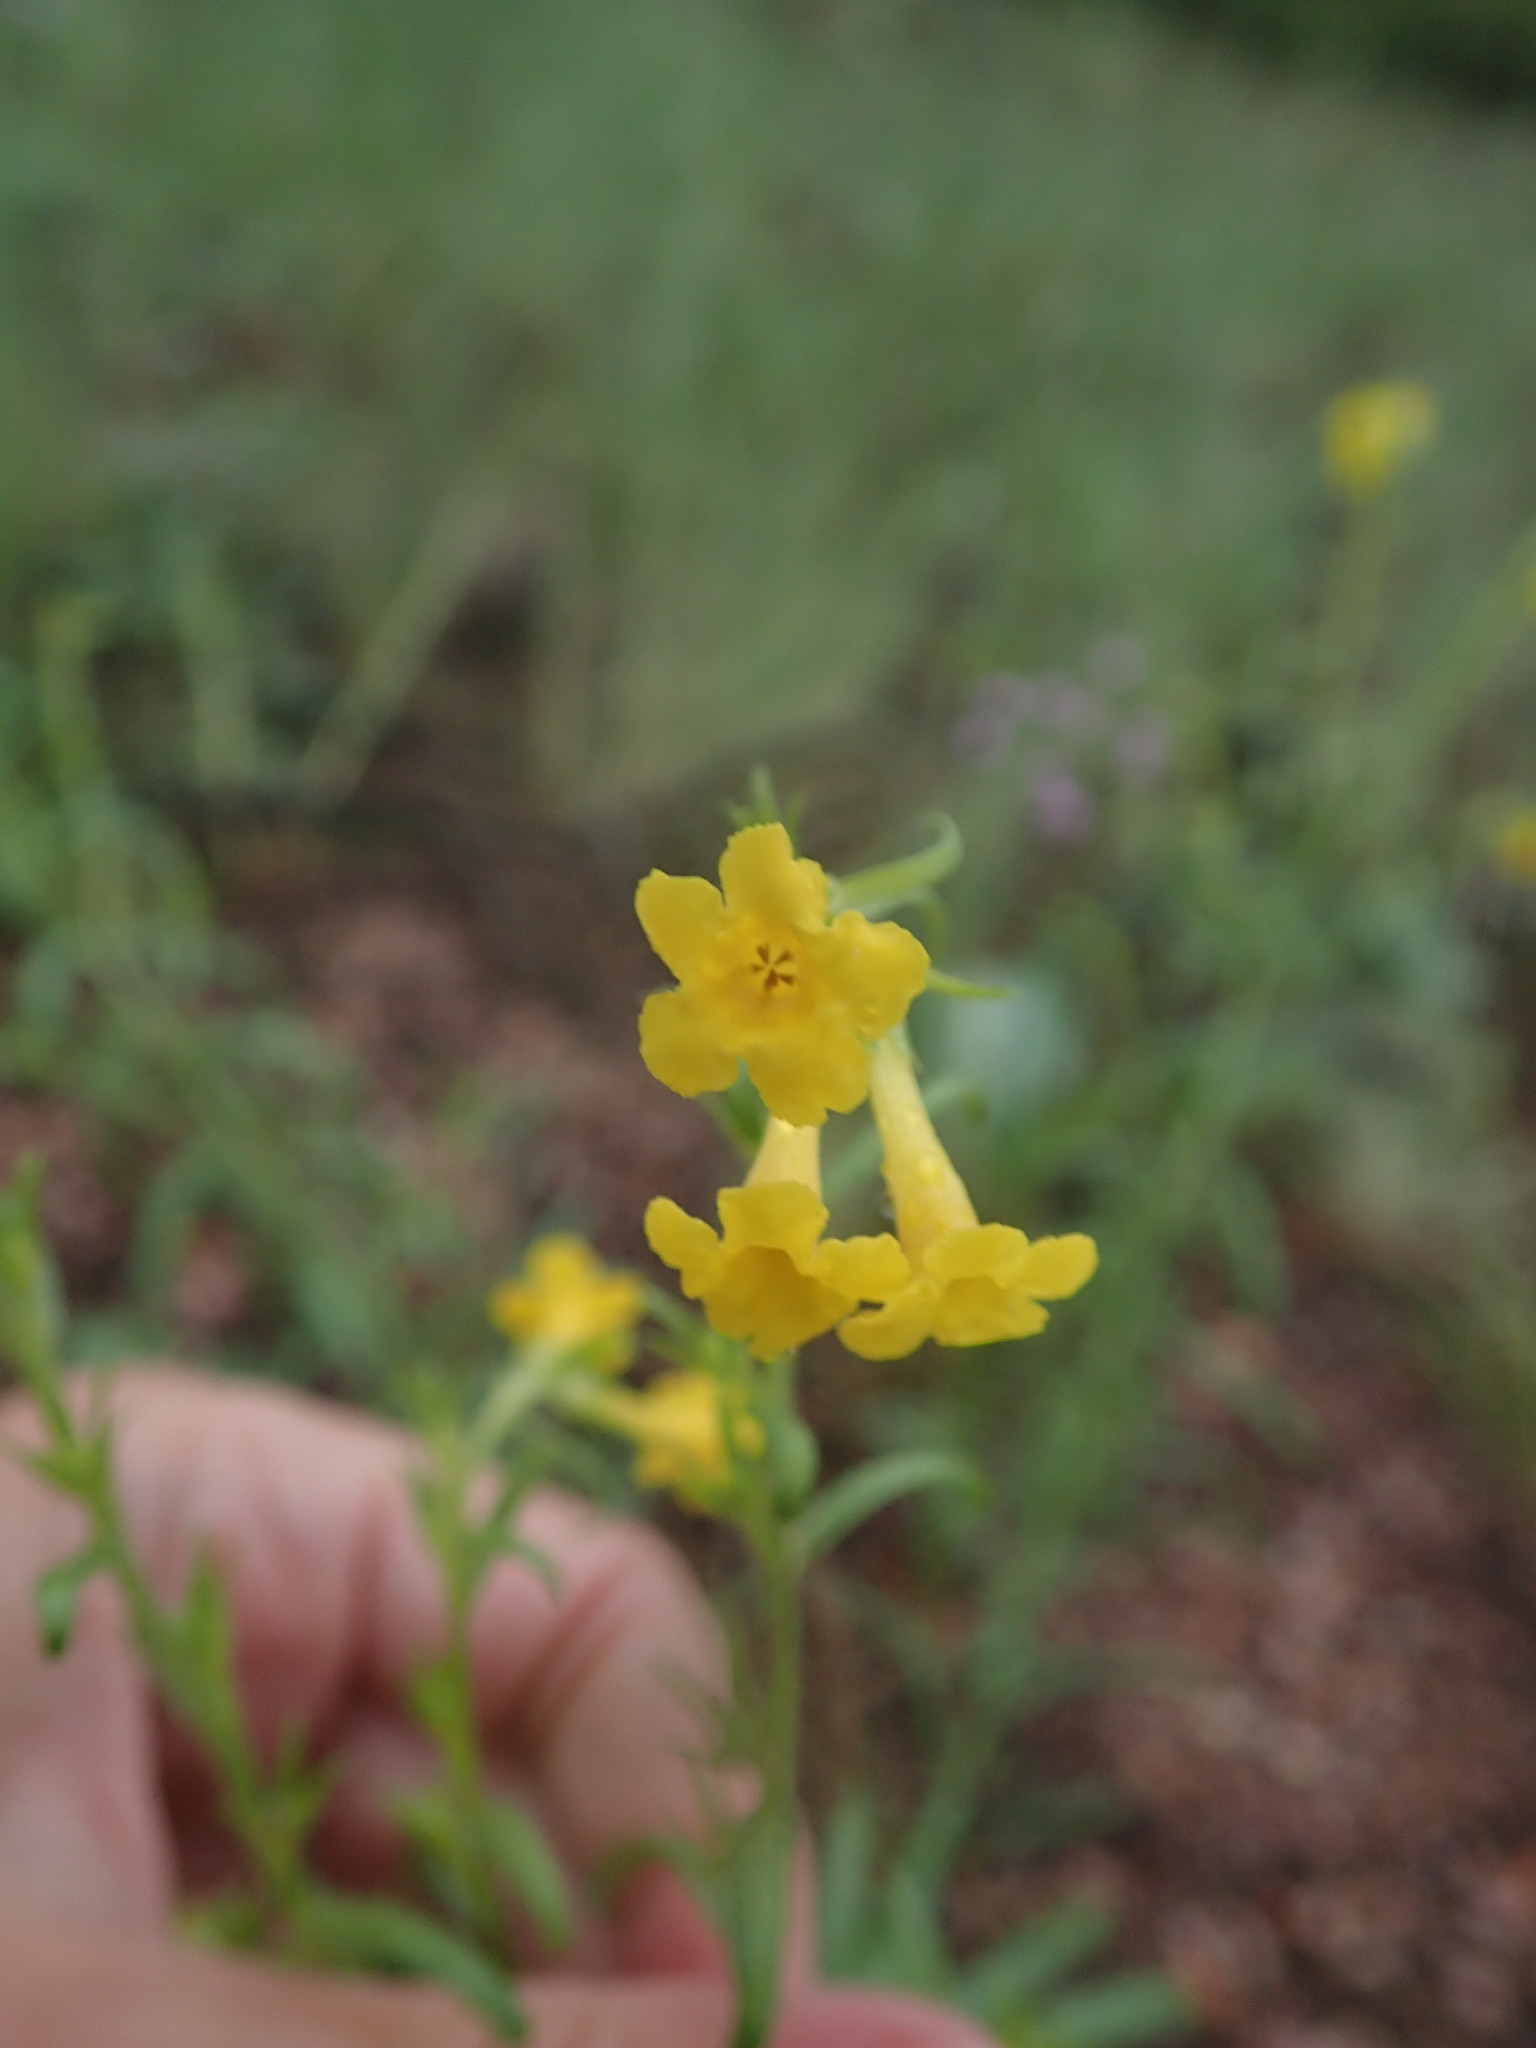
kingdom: Plantae
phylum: Tracheophyta
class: Magnoliopsida
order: Boraginales
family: Boraginaceae
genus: Lithospermum
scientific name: Lithospermum multiflorum
